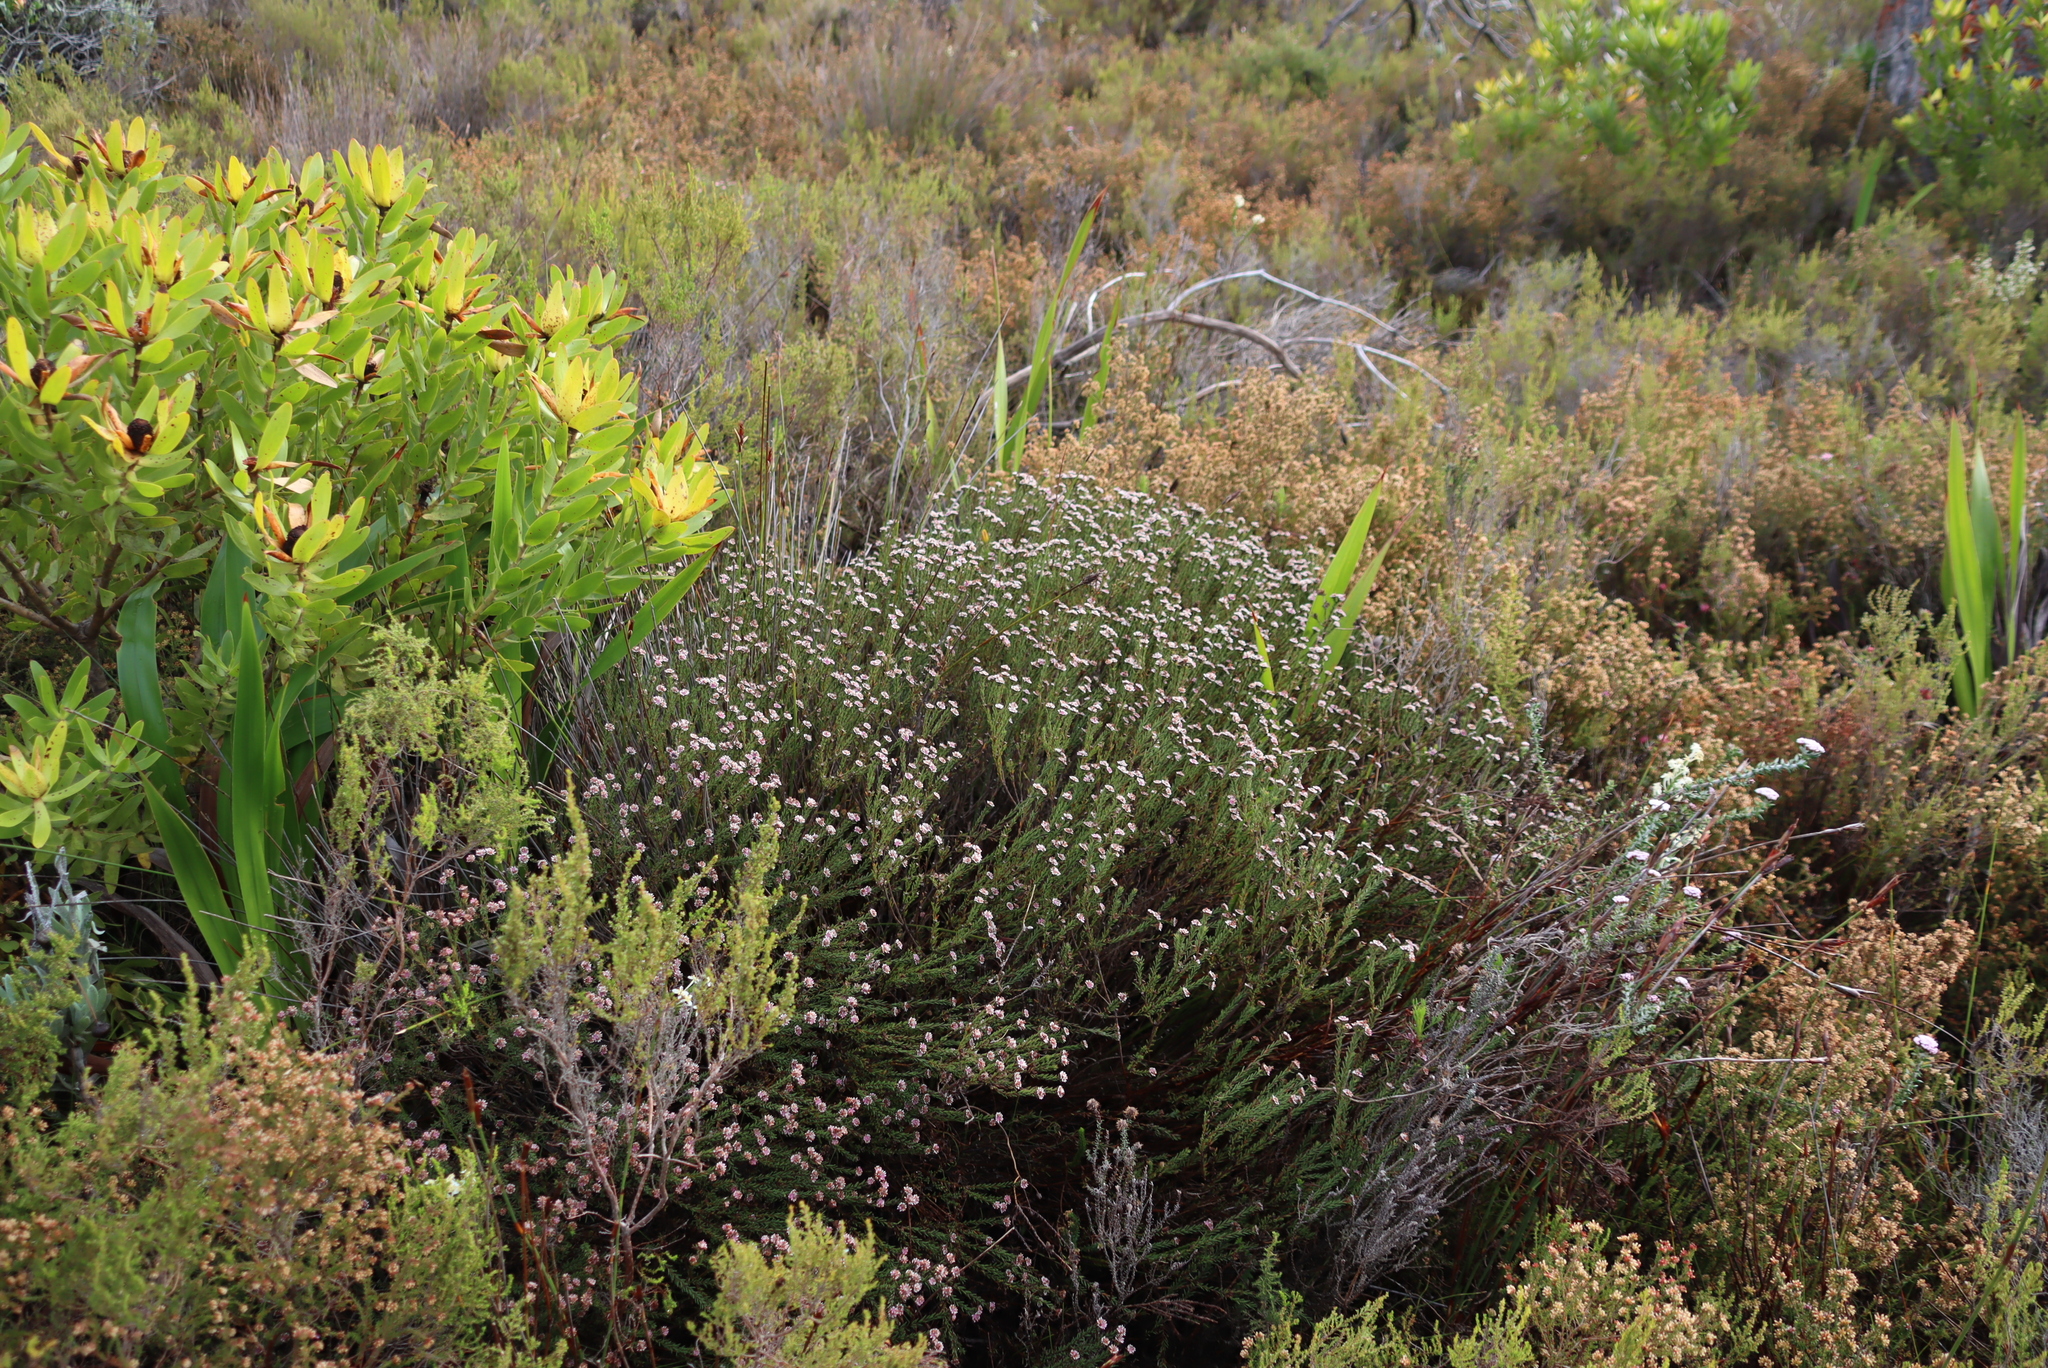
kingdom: Plantae
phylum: Tracheophyta
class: Magnoliopsida
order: Bruniales
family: Bruniaceae
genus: Staavia
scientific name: Staavia radiata
